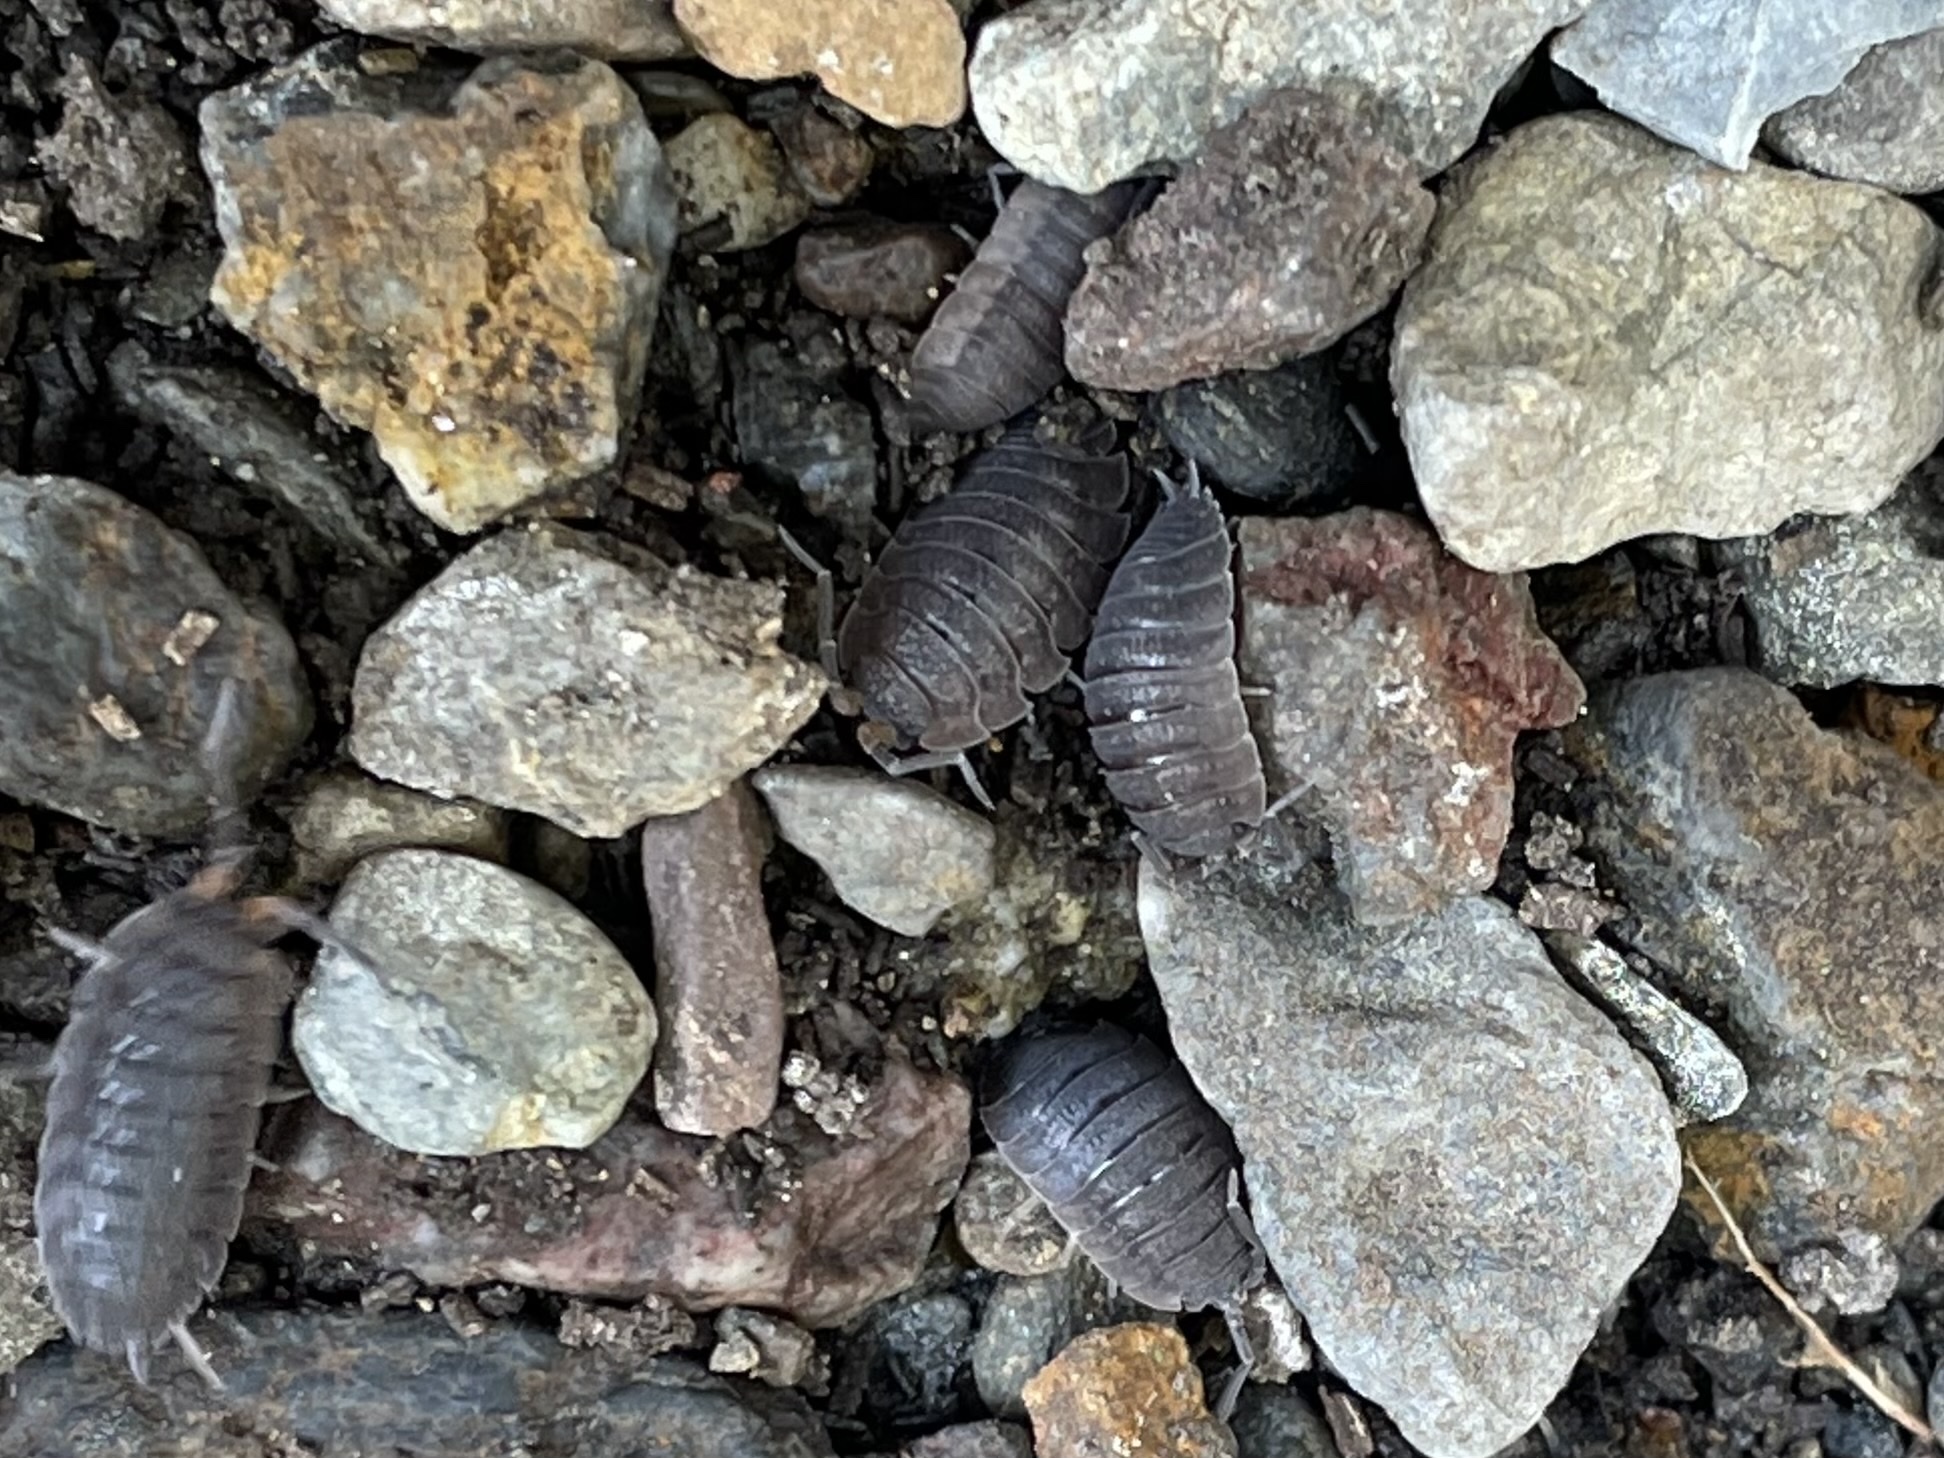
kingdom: Animalia
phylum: Arthropoda
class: Malacostraca
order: Isopoda
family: Porcellionidae
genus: Porcellio
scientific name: Porcellio scaber
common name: Common rough woodlouse
